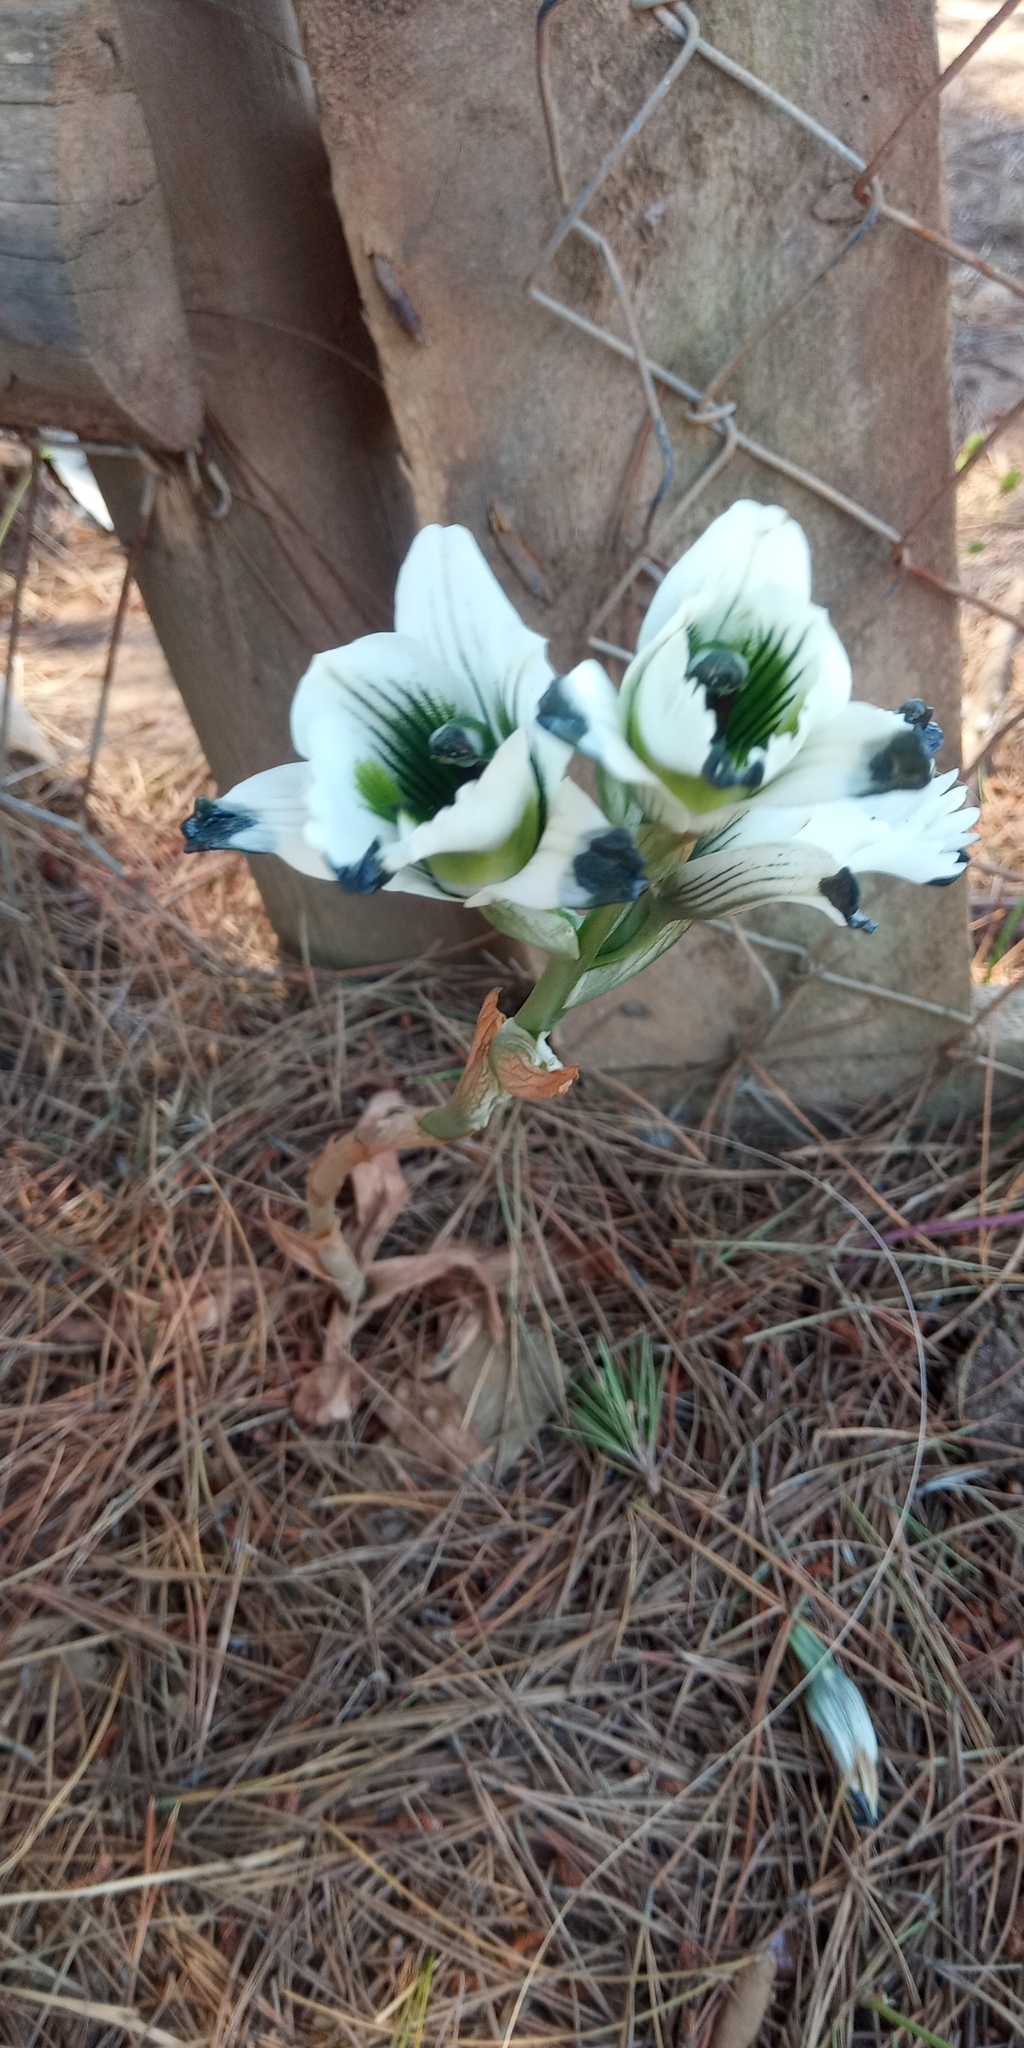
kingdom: Plantae
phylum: Tracheophyta
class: Liliopsida
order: Asparagales
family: Orchidaceae
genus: Chloraea
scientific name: Chloraea bletioides
